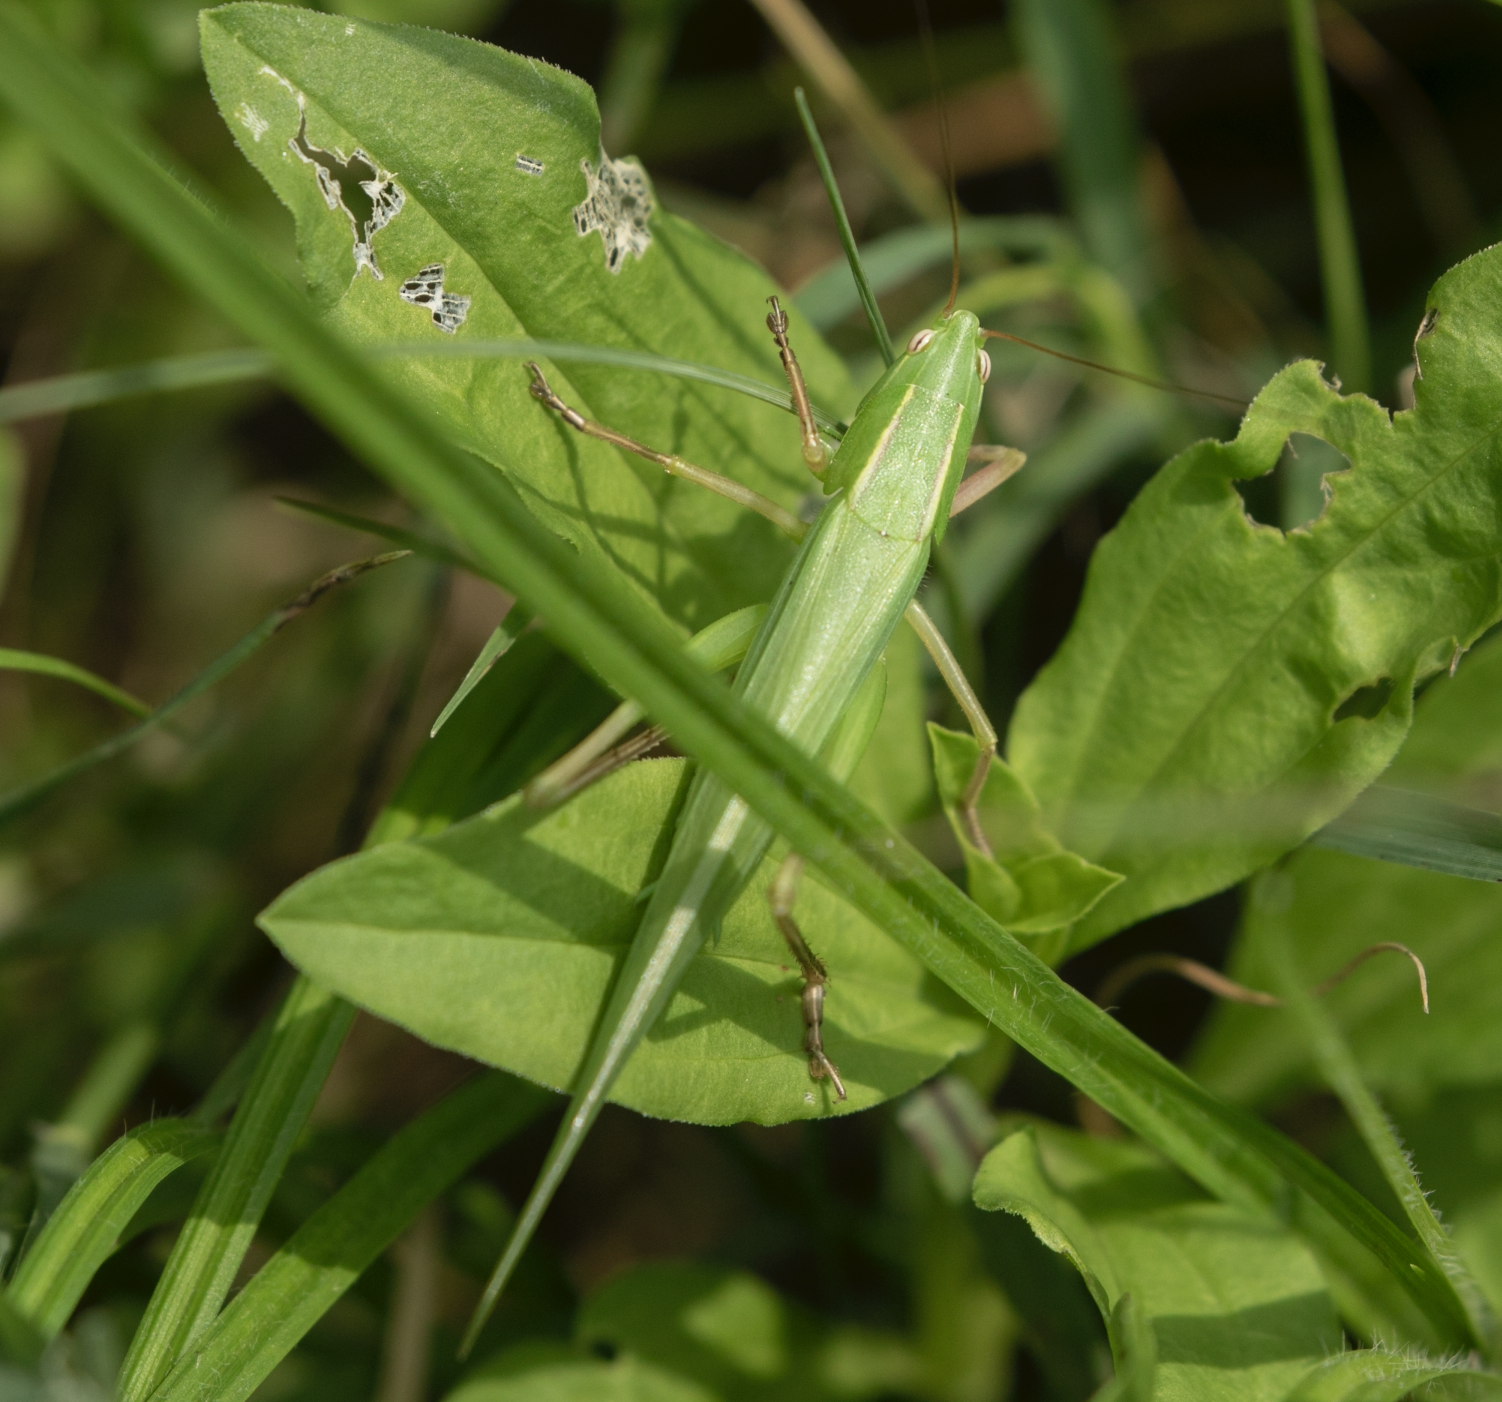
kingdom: Animalia
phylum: Arthropoda
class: Insecta
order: Orthoptera
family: Tettigoniidae
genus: Ruspolia
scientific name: Ruspolia nitidula
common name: Large conehead
